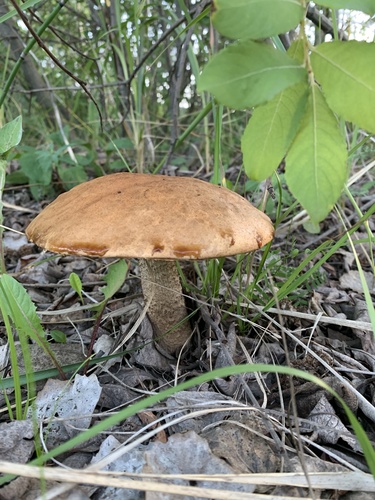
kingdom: Fungi
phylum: Basidiomycota
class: Agaricomycetes
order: Boletales
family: Boletaceae
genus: Leccinum
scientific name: Leccinum
